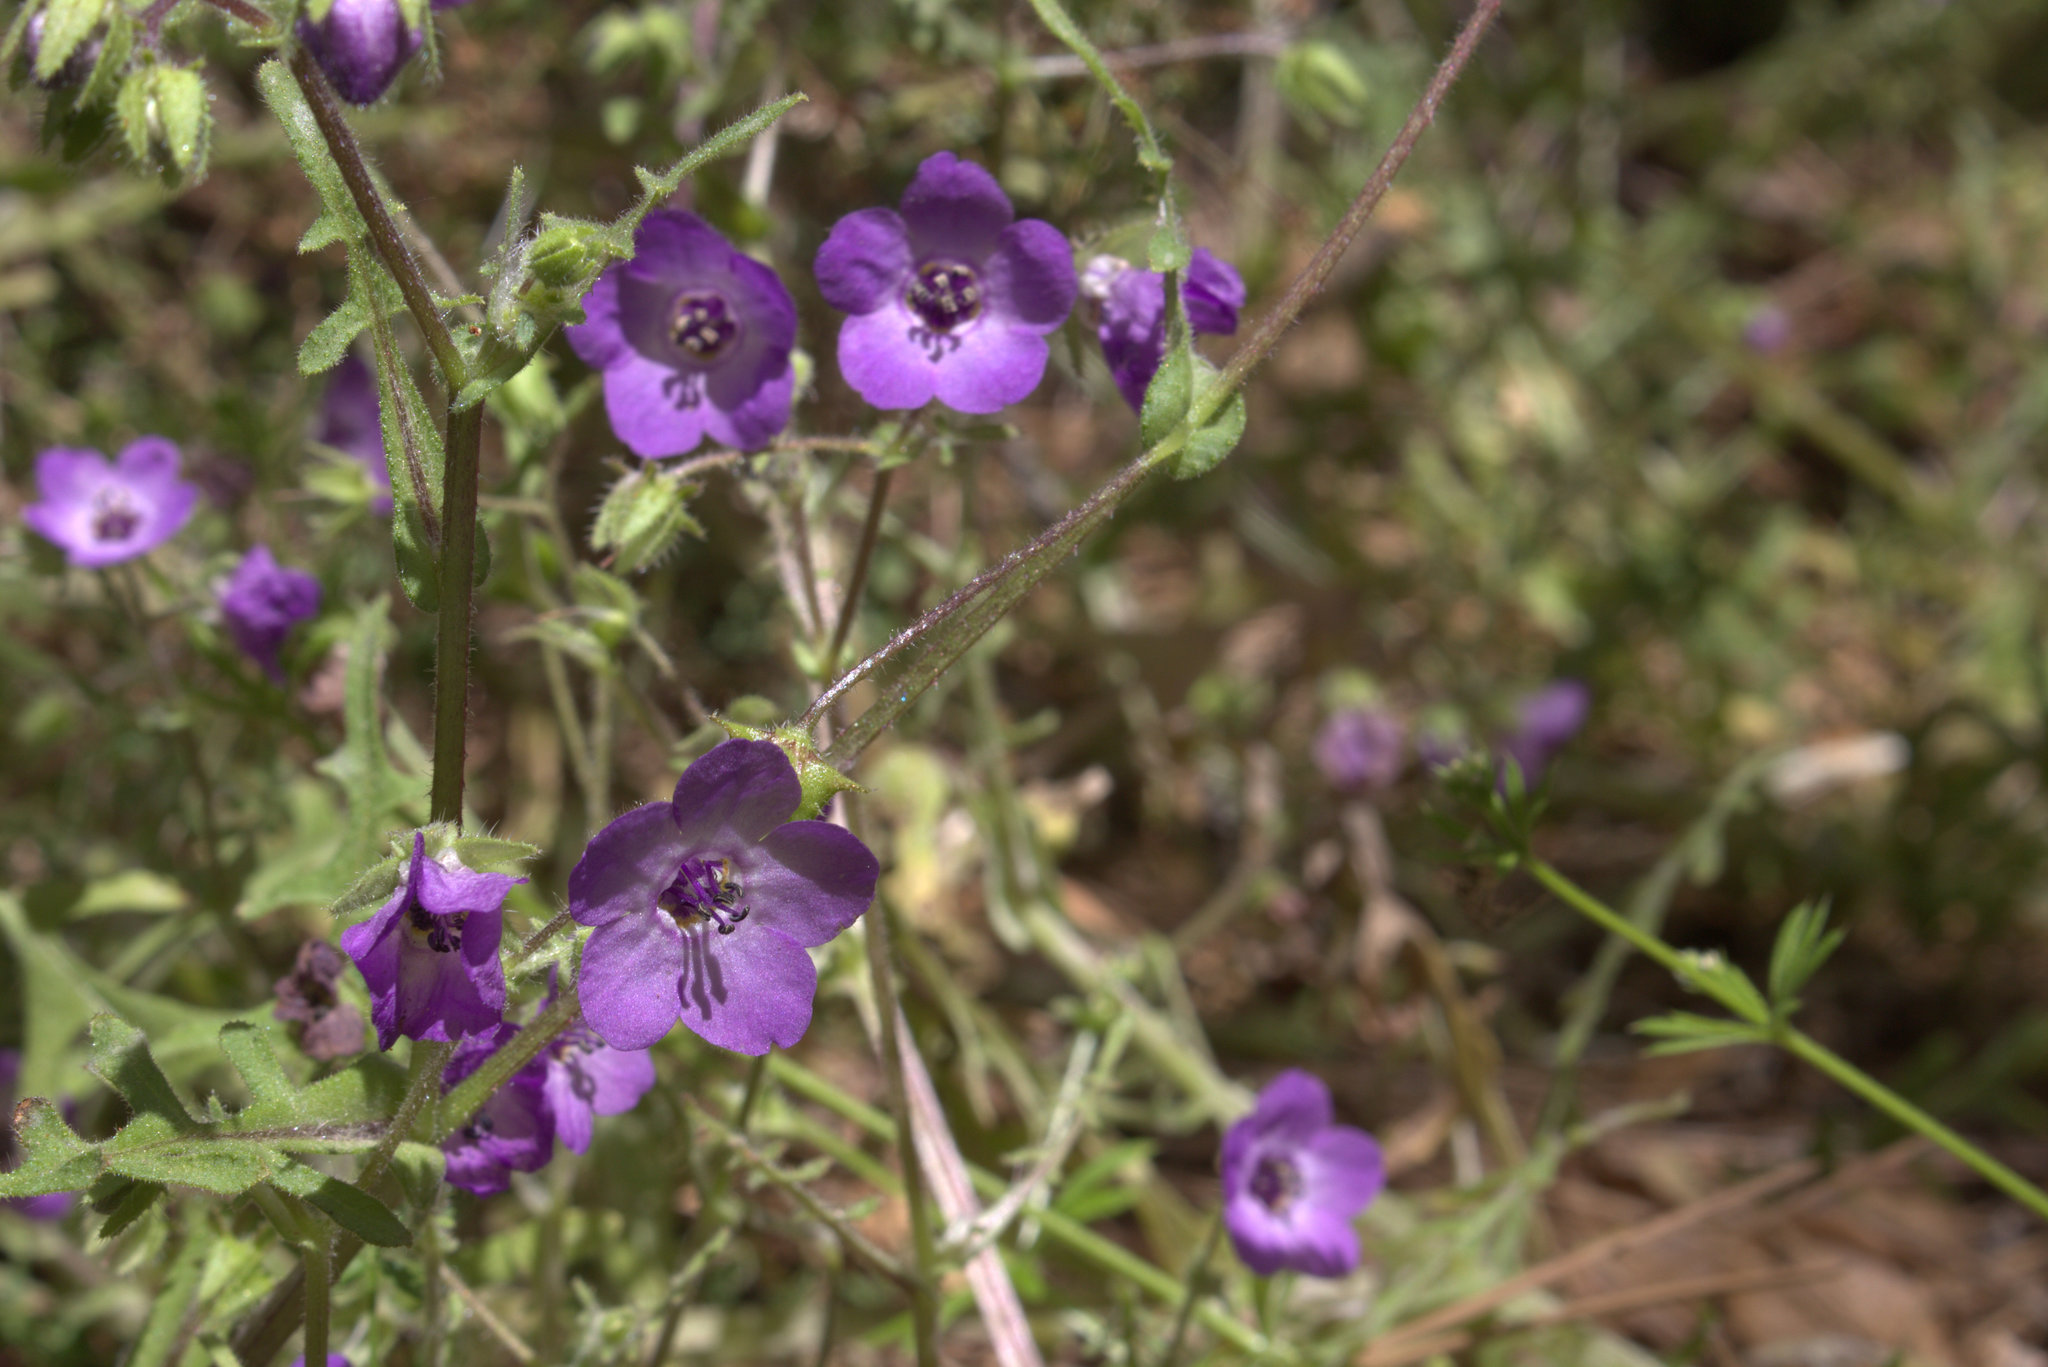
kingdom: Plantae
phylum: Tracheophyta
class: Magnoliopsida
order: Boraginales
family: Hydrophyllaceae
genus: Pholistoma
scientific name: Pholistoma auritum
